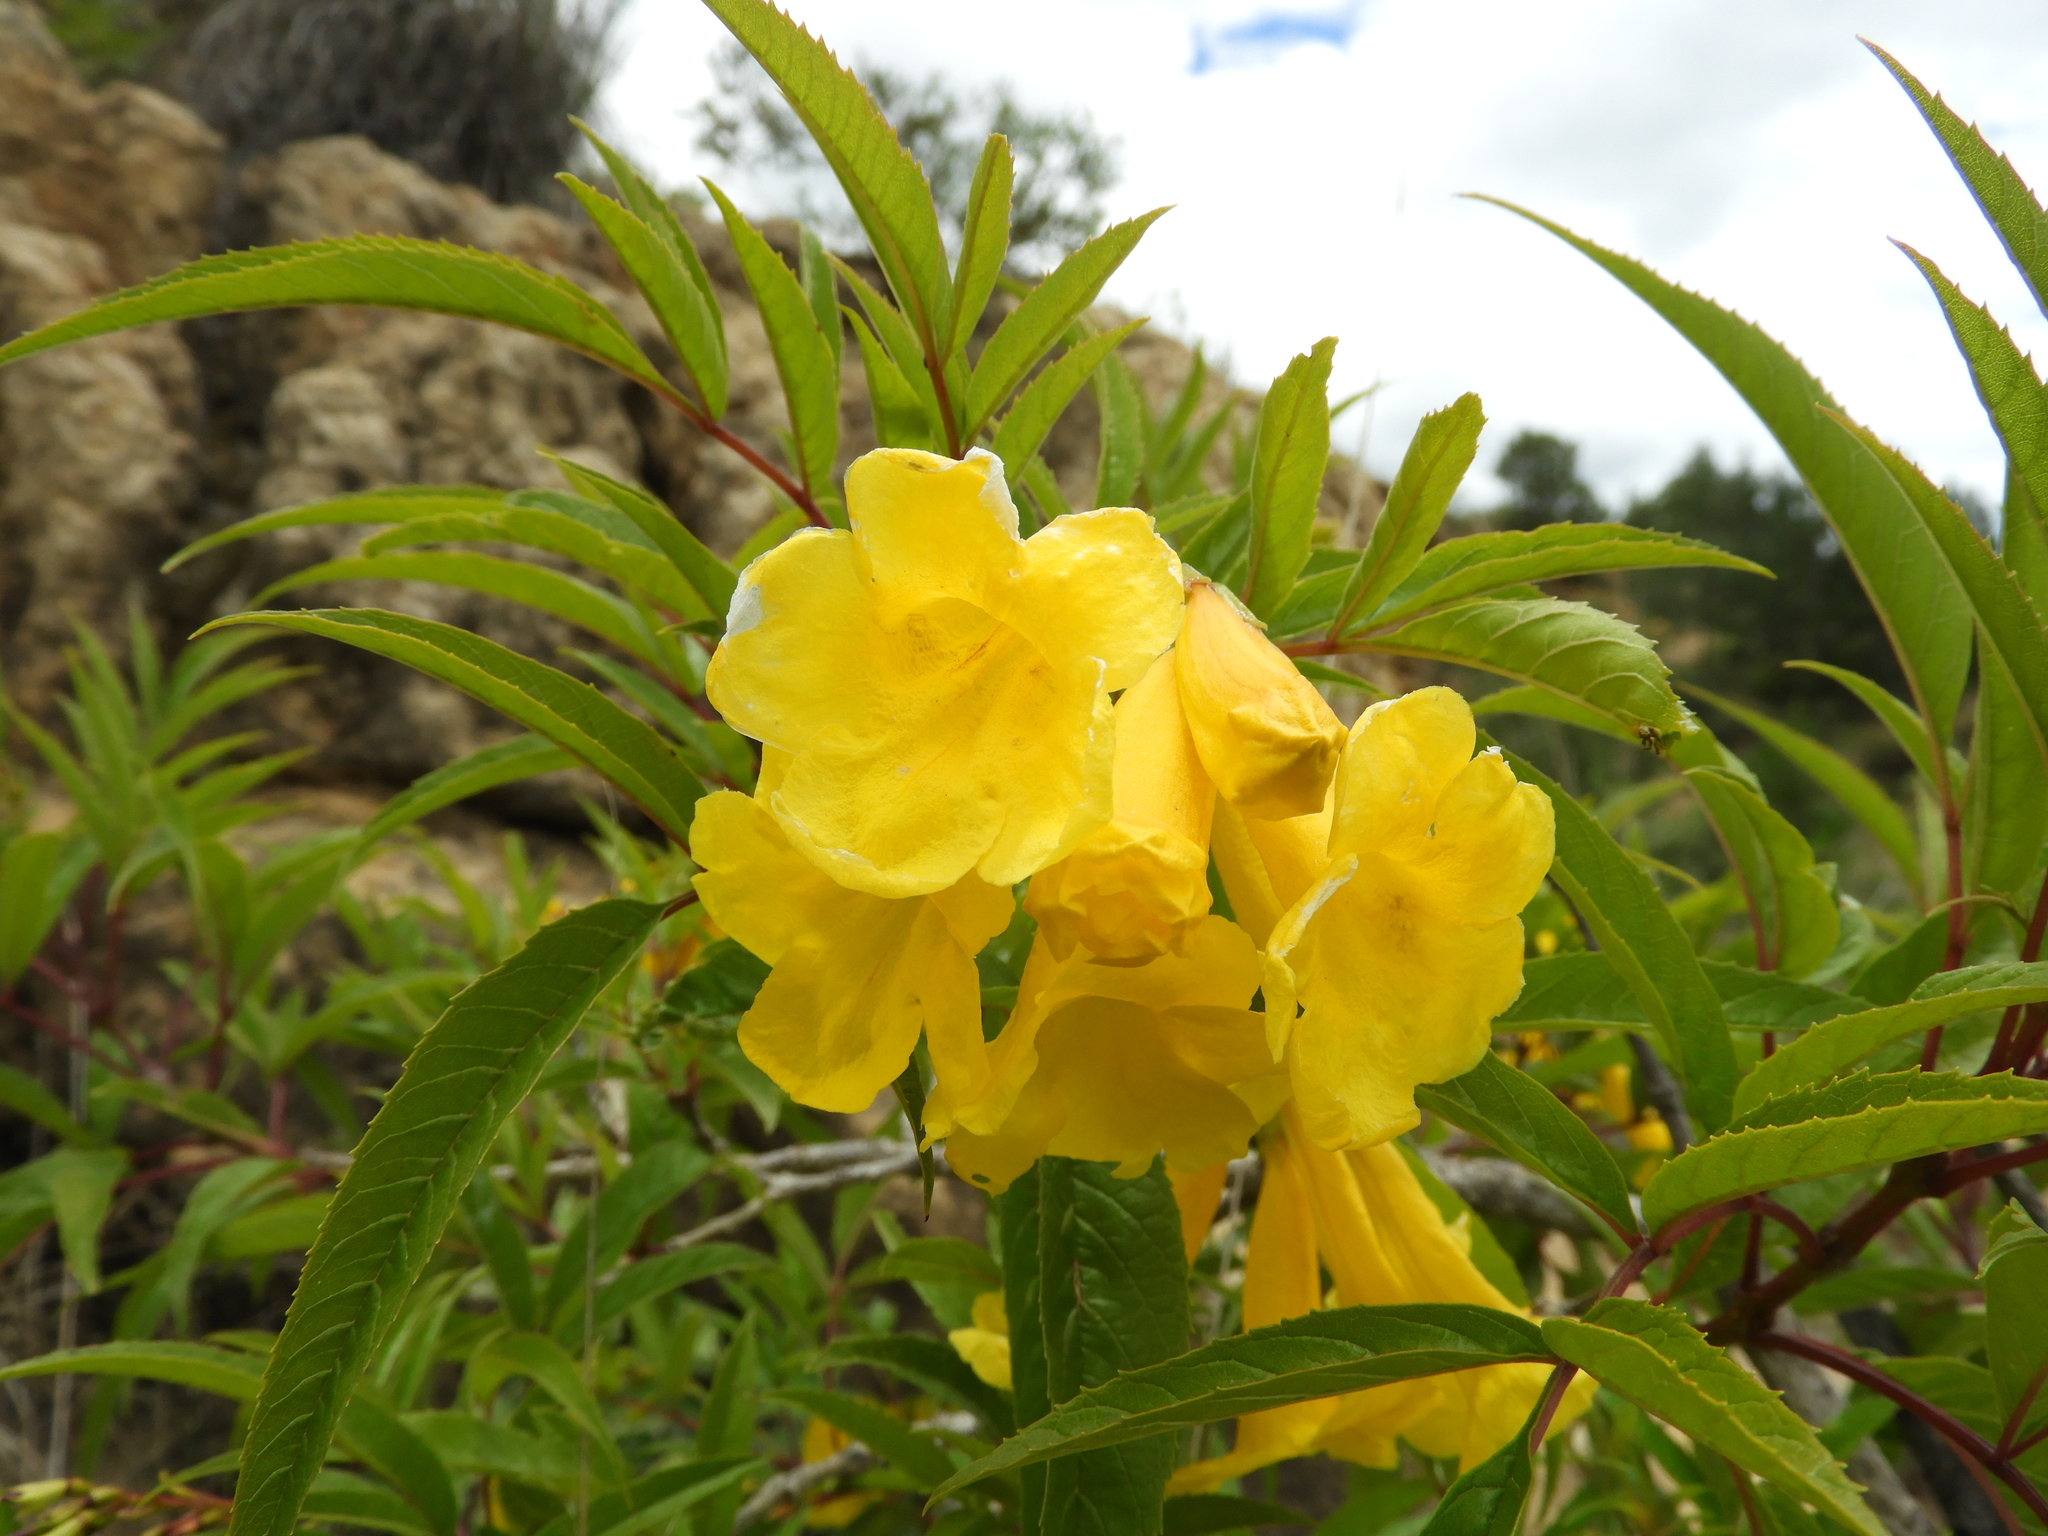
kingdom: Plantae
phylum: Tracheophyta
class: Magnoliopsida
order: Lamiales
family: Bignoniaceae
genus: Tecoma
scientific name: Tecoma stans
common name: Yellow trumpetbush
